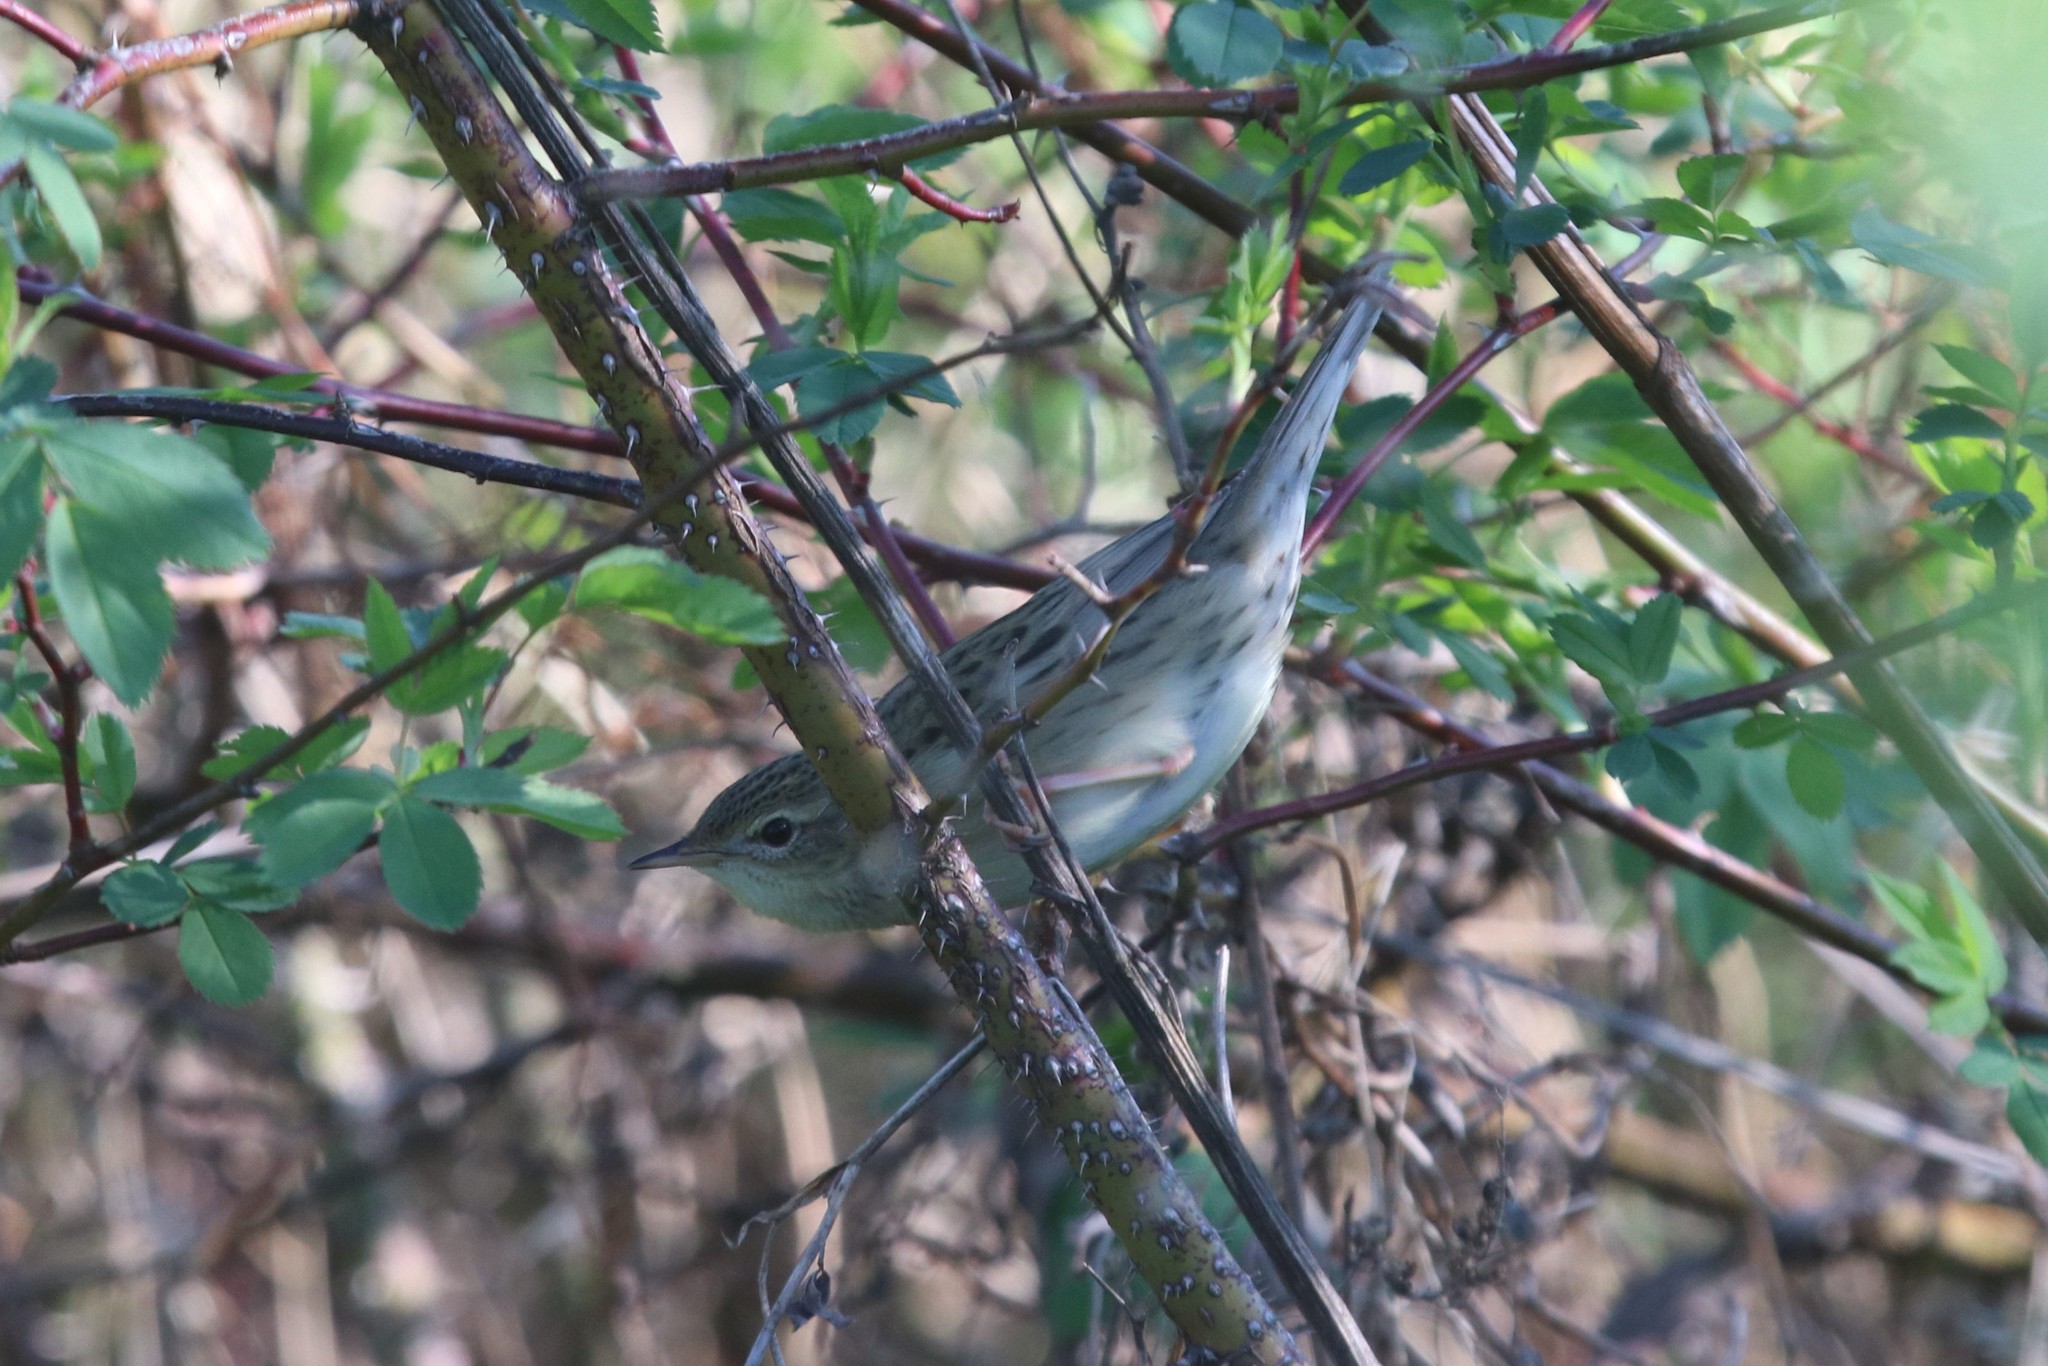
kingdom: Animalia
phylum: Chordata
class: Aves
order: Passeriformes
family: Locustellidae
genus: Locustella
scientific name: Locustella naevia
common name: Common grasshopper warbler
